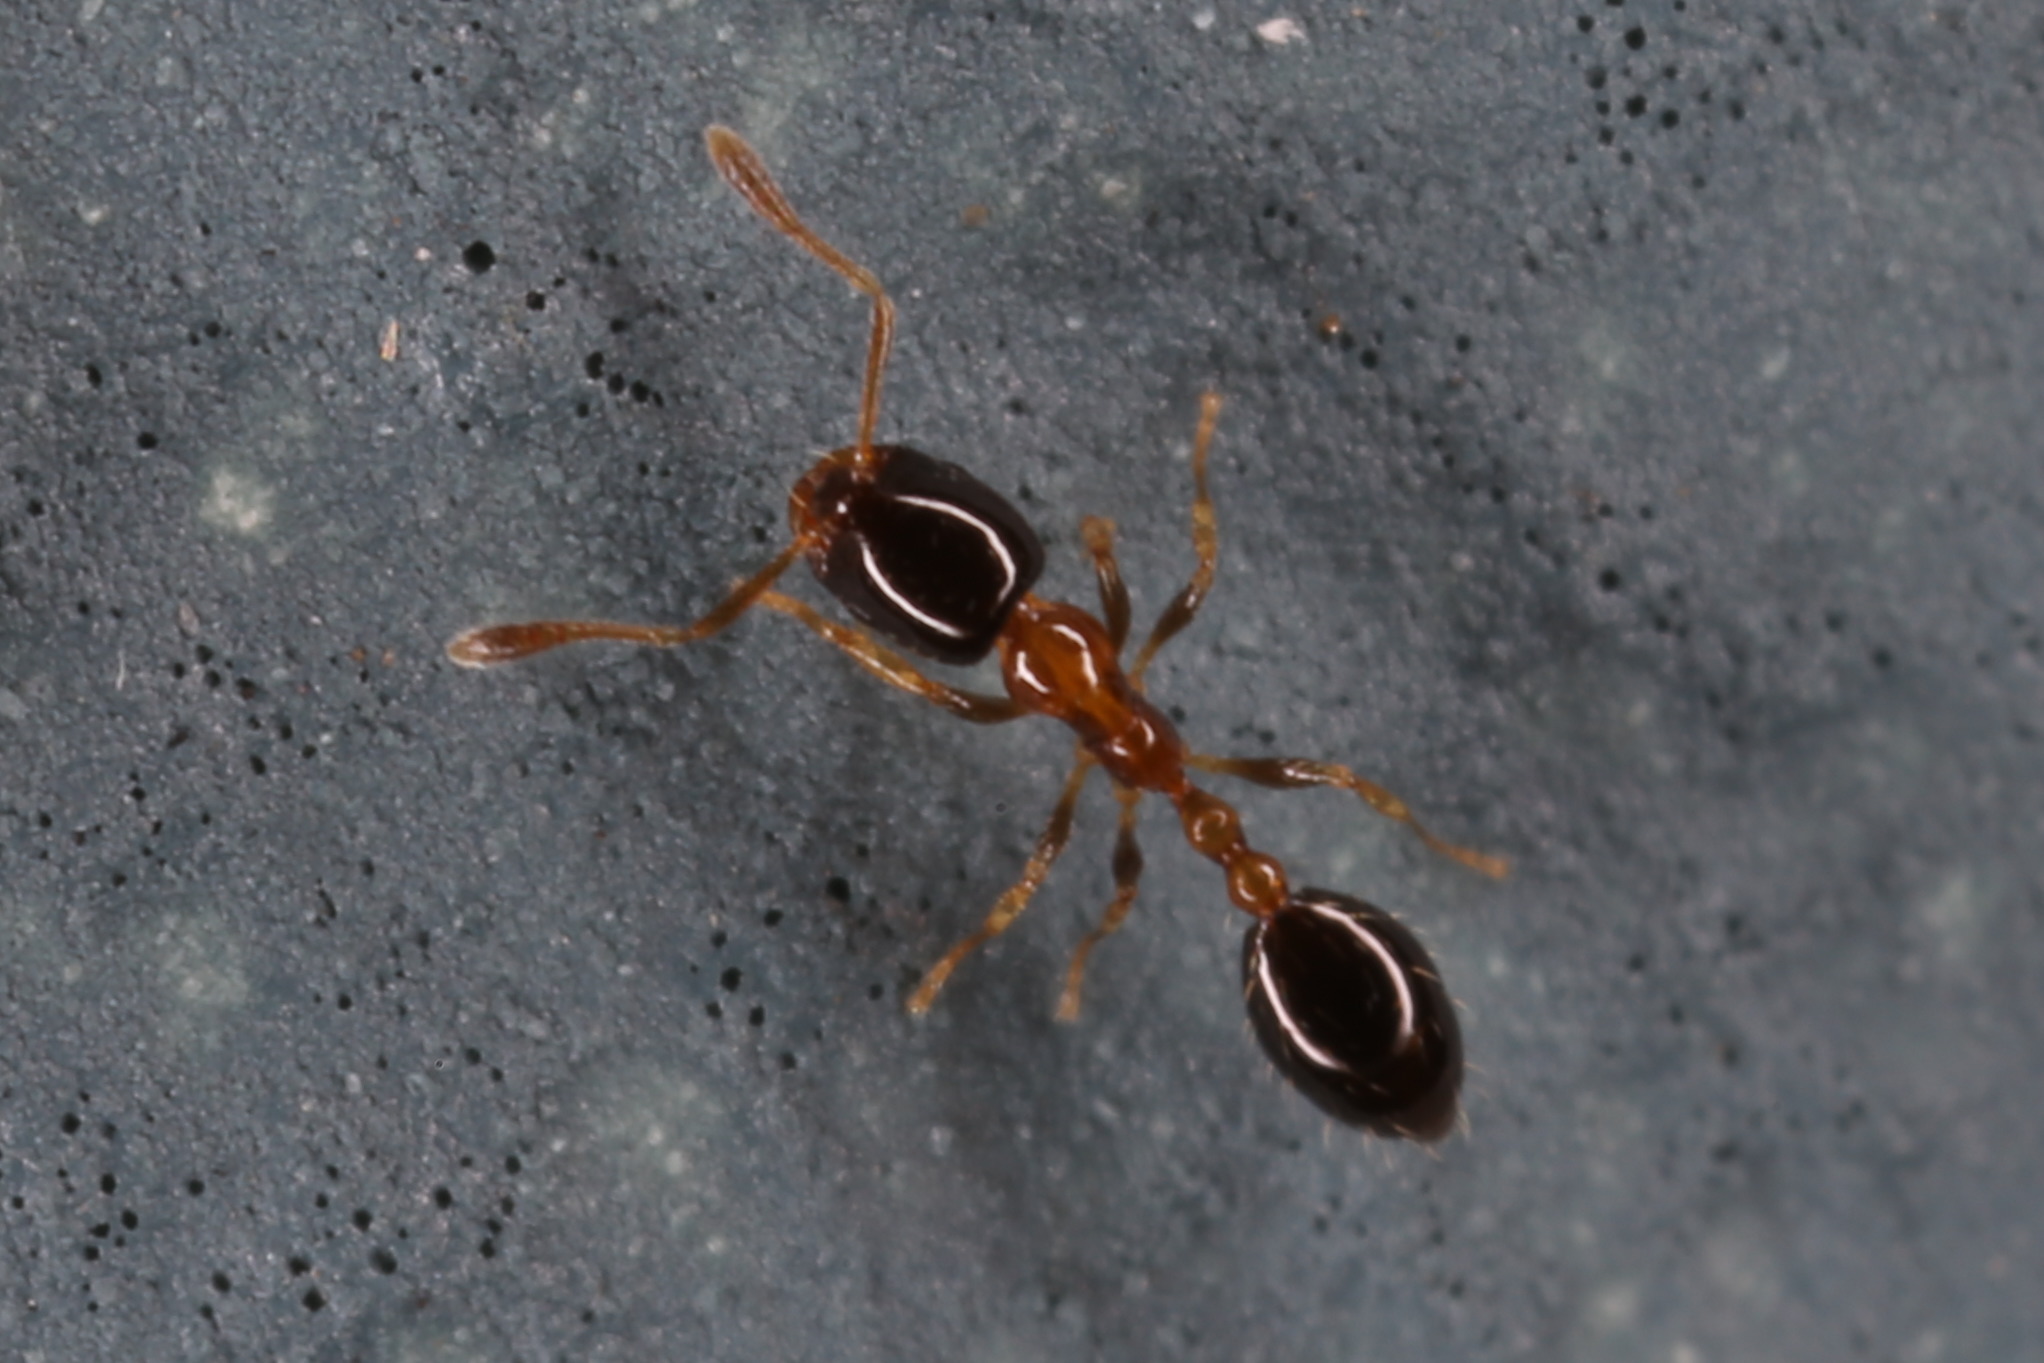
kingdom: Animalia
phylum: Arthropoda
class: Insecta
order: Hymenoptera
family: Formicidae
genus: Monomorium
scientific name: Monomorium floricola
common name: Bicolored trailing ant
